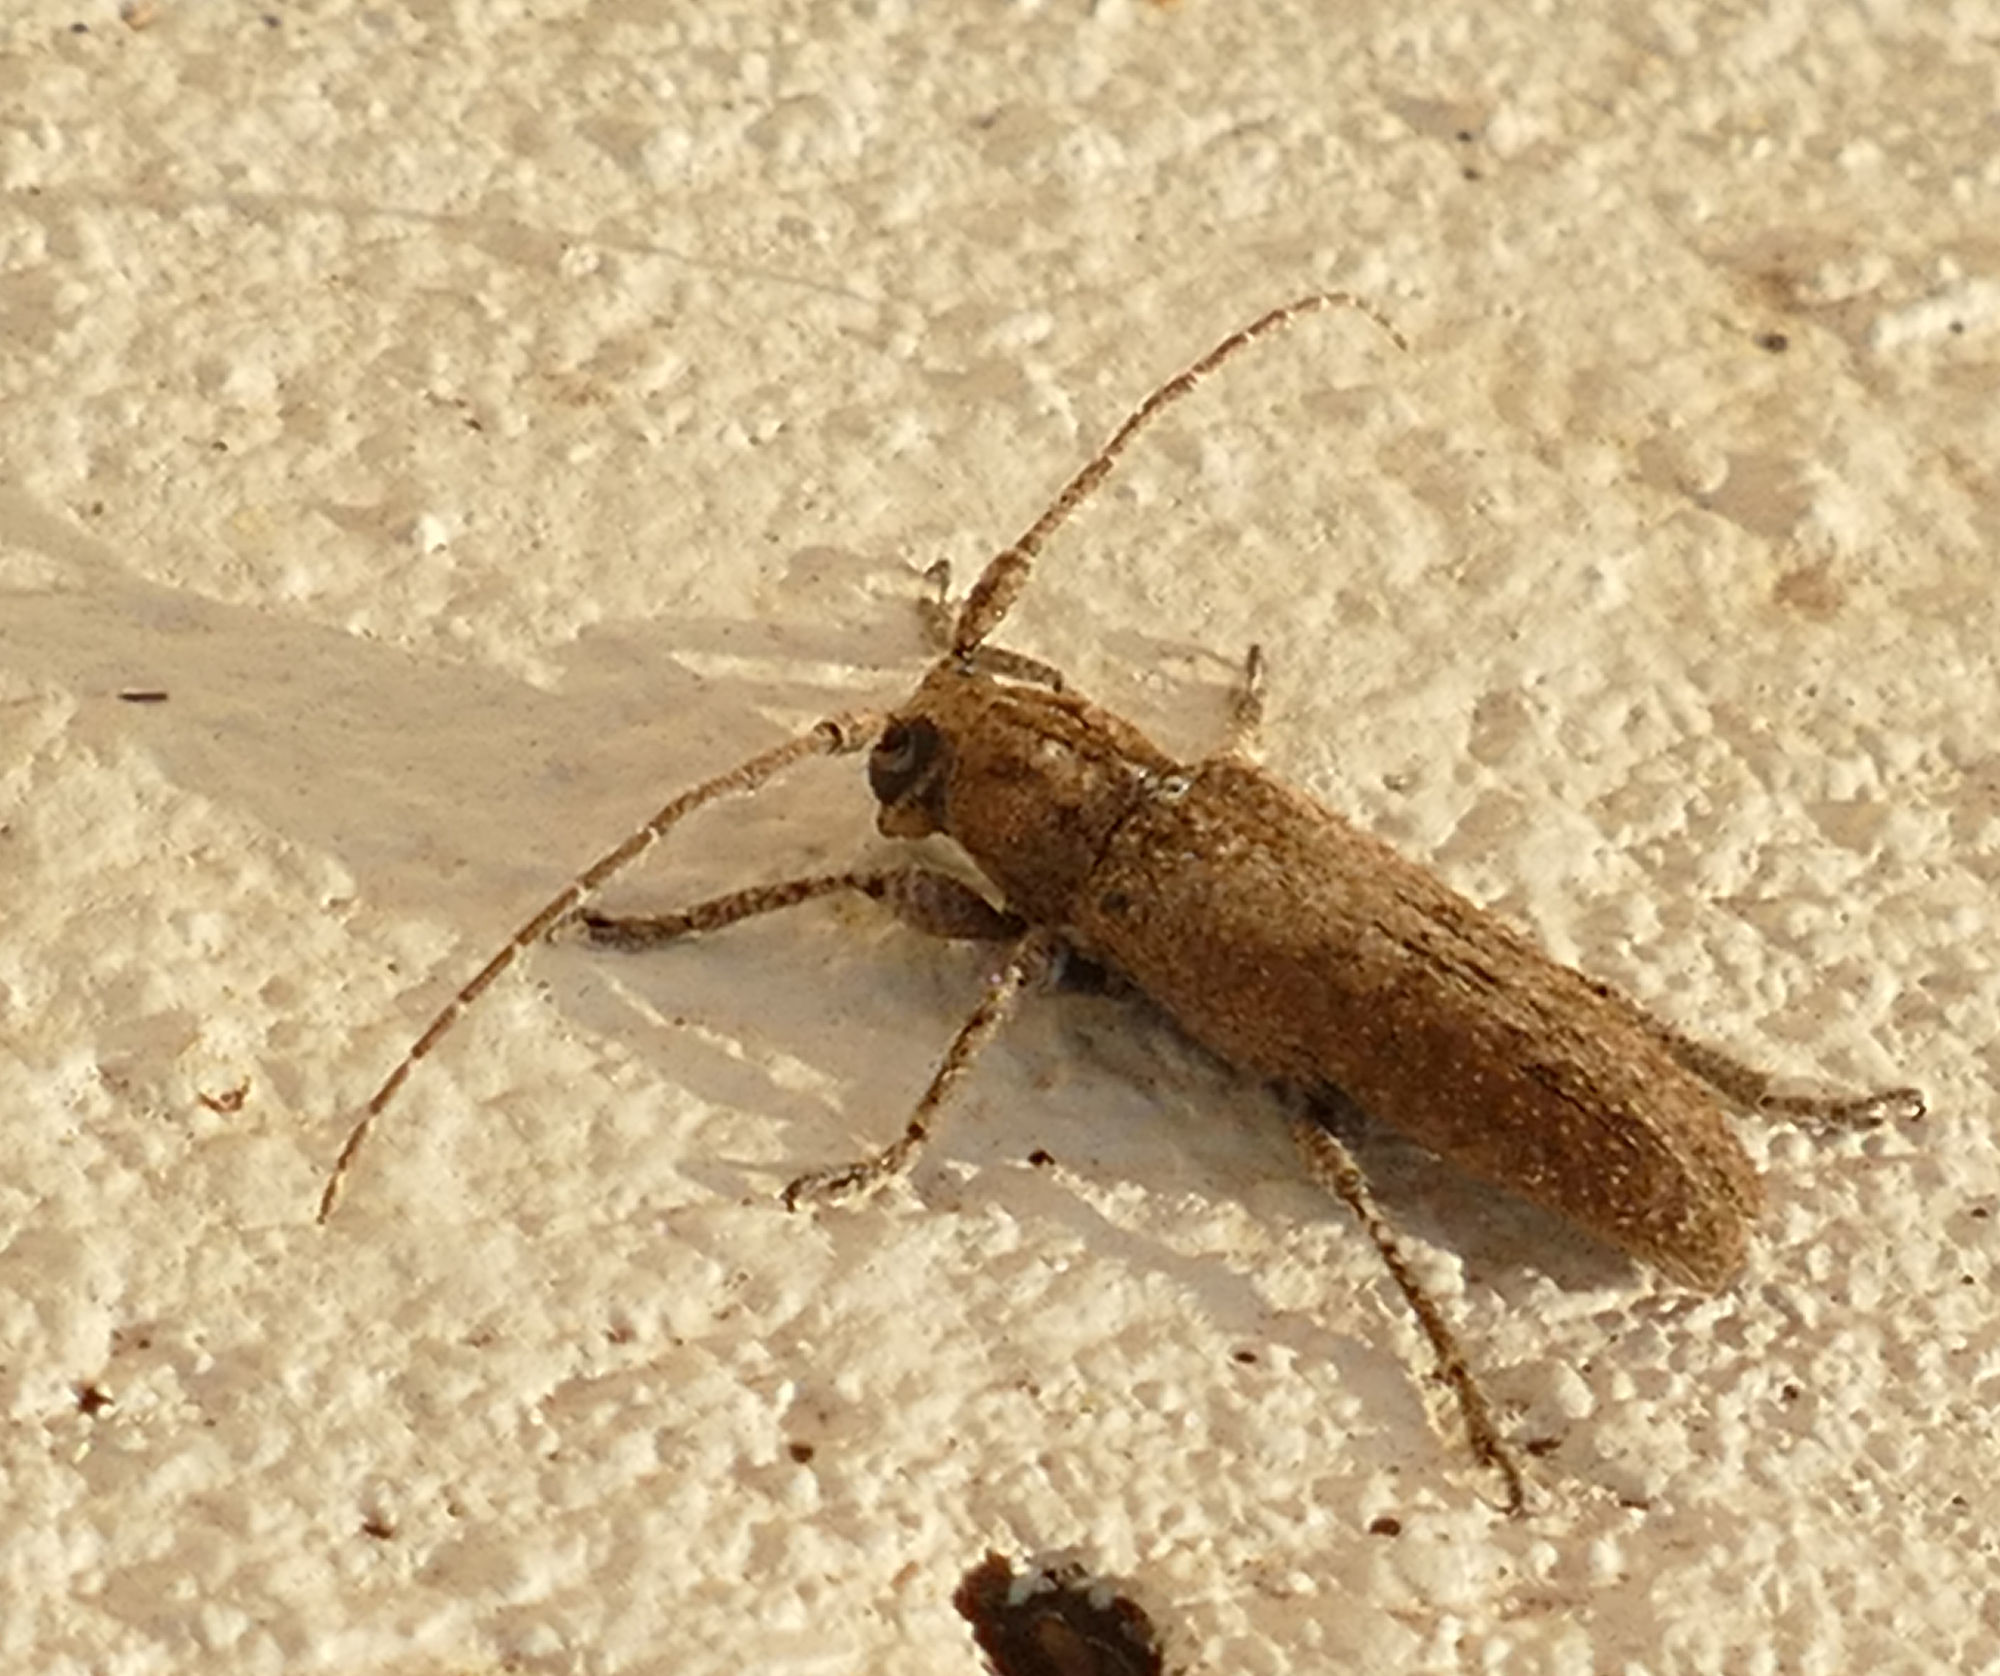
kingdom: Animalia
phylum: Arthropoda
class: Insecta
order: Coleoptera
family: Cerambycidae
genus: Ataxia
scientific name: Ataxia crypta
